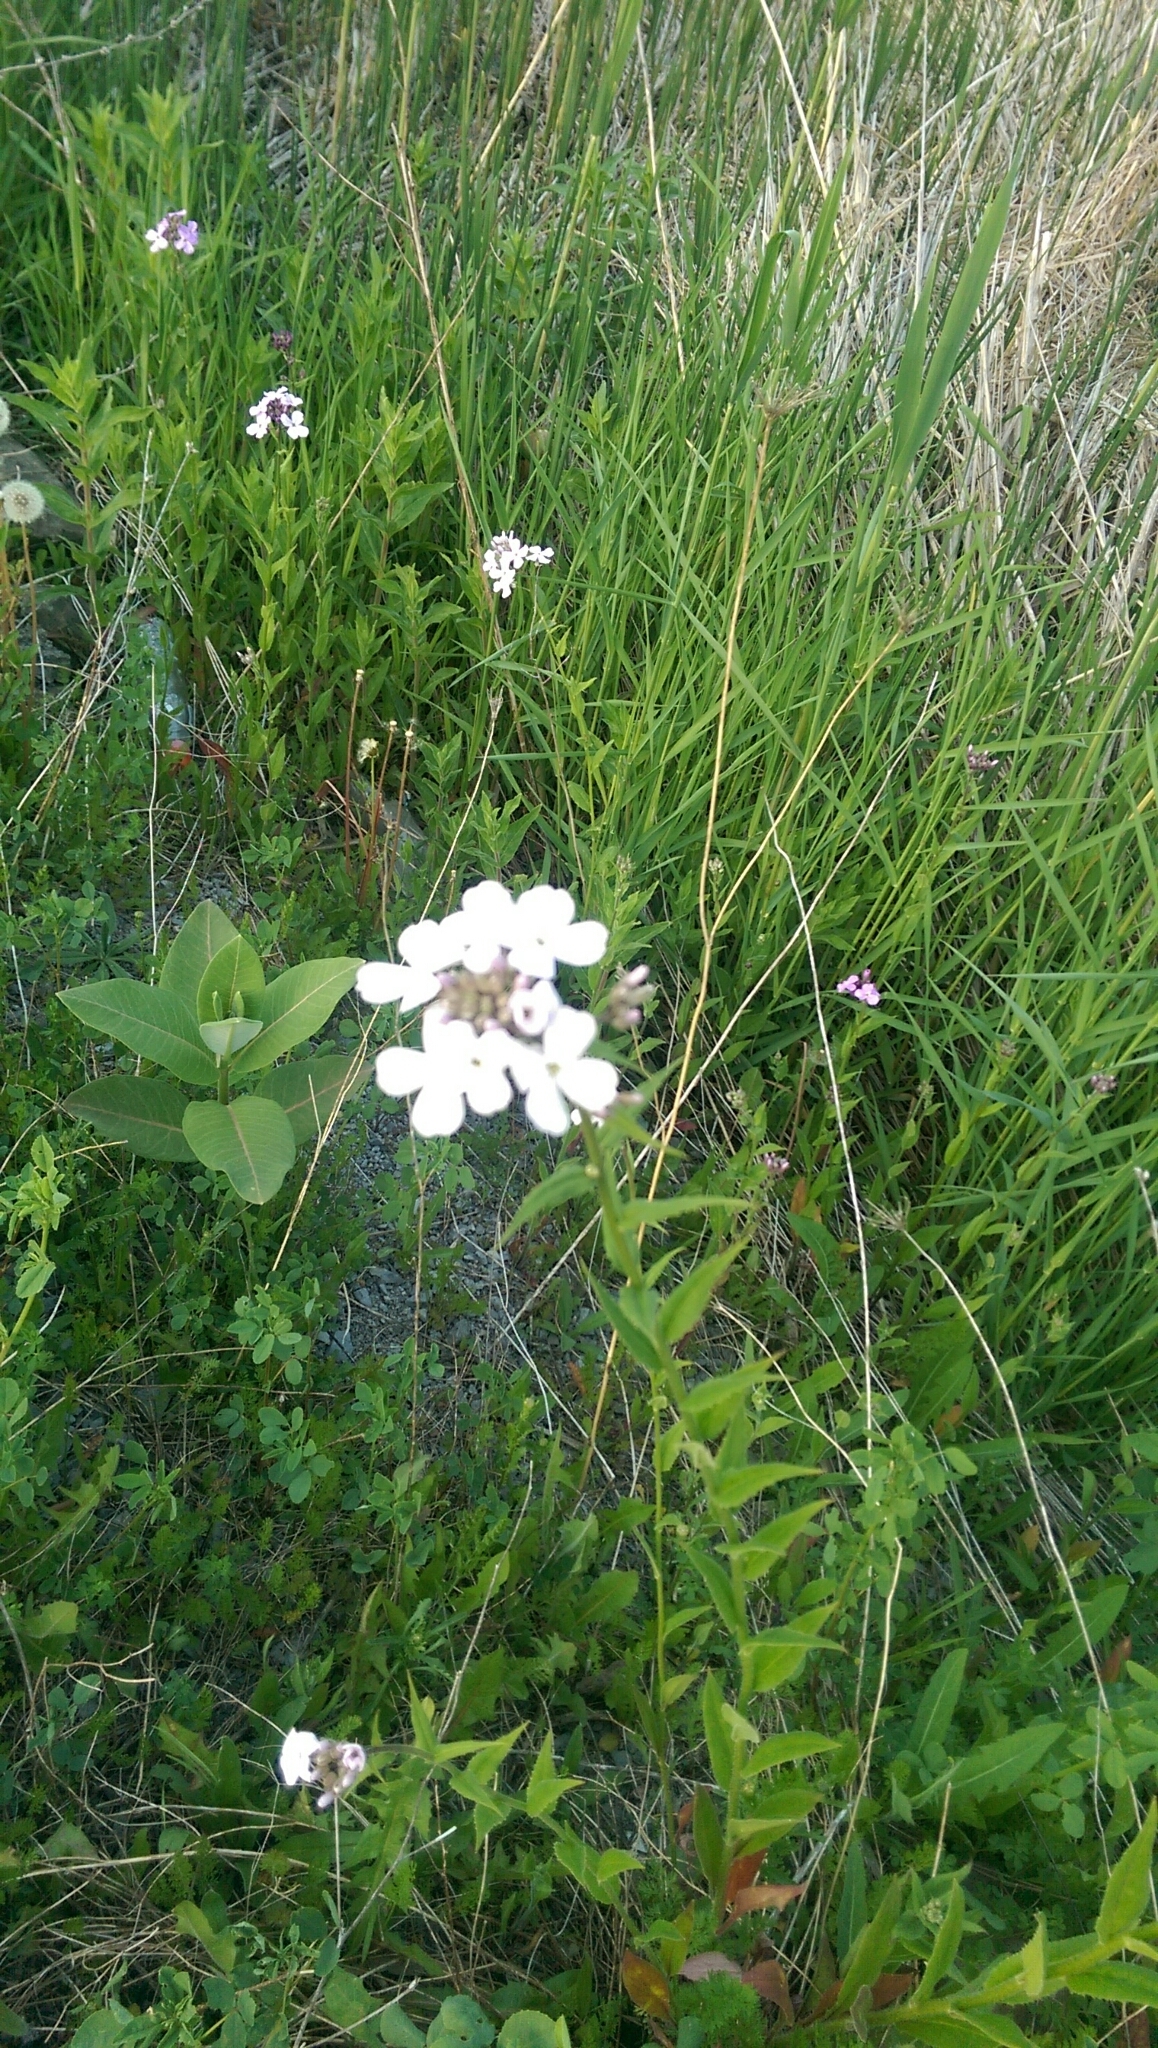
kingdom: Plantae
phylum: Tracheophyta
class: Magnoliopsida
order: Brassicales
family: Brassicaceae
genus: Hesperis
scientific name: Hesperis matronalis
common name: Dame's-violet
